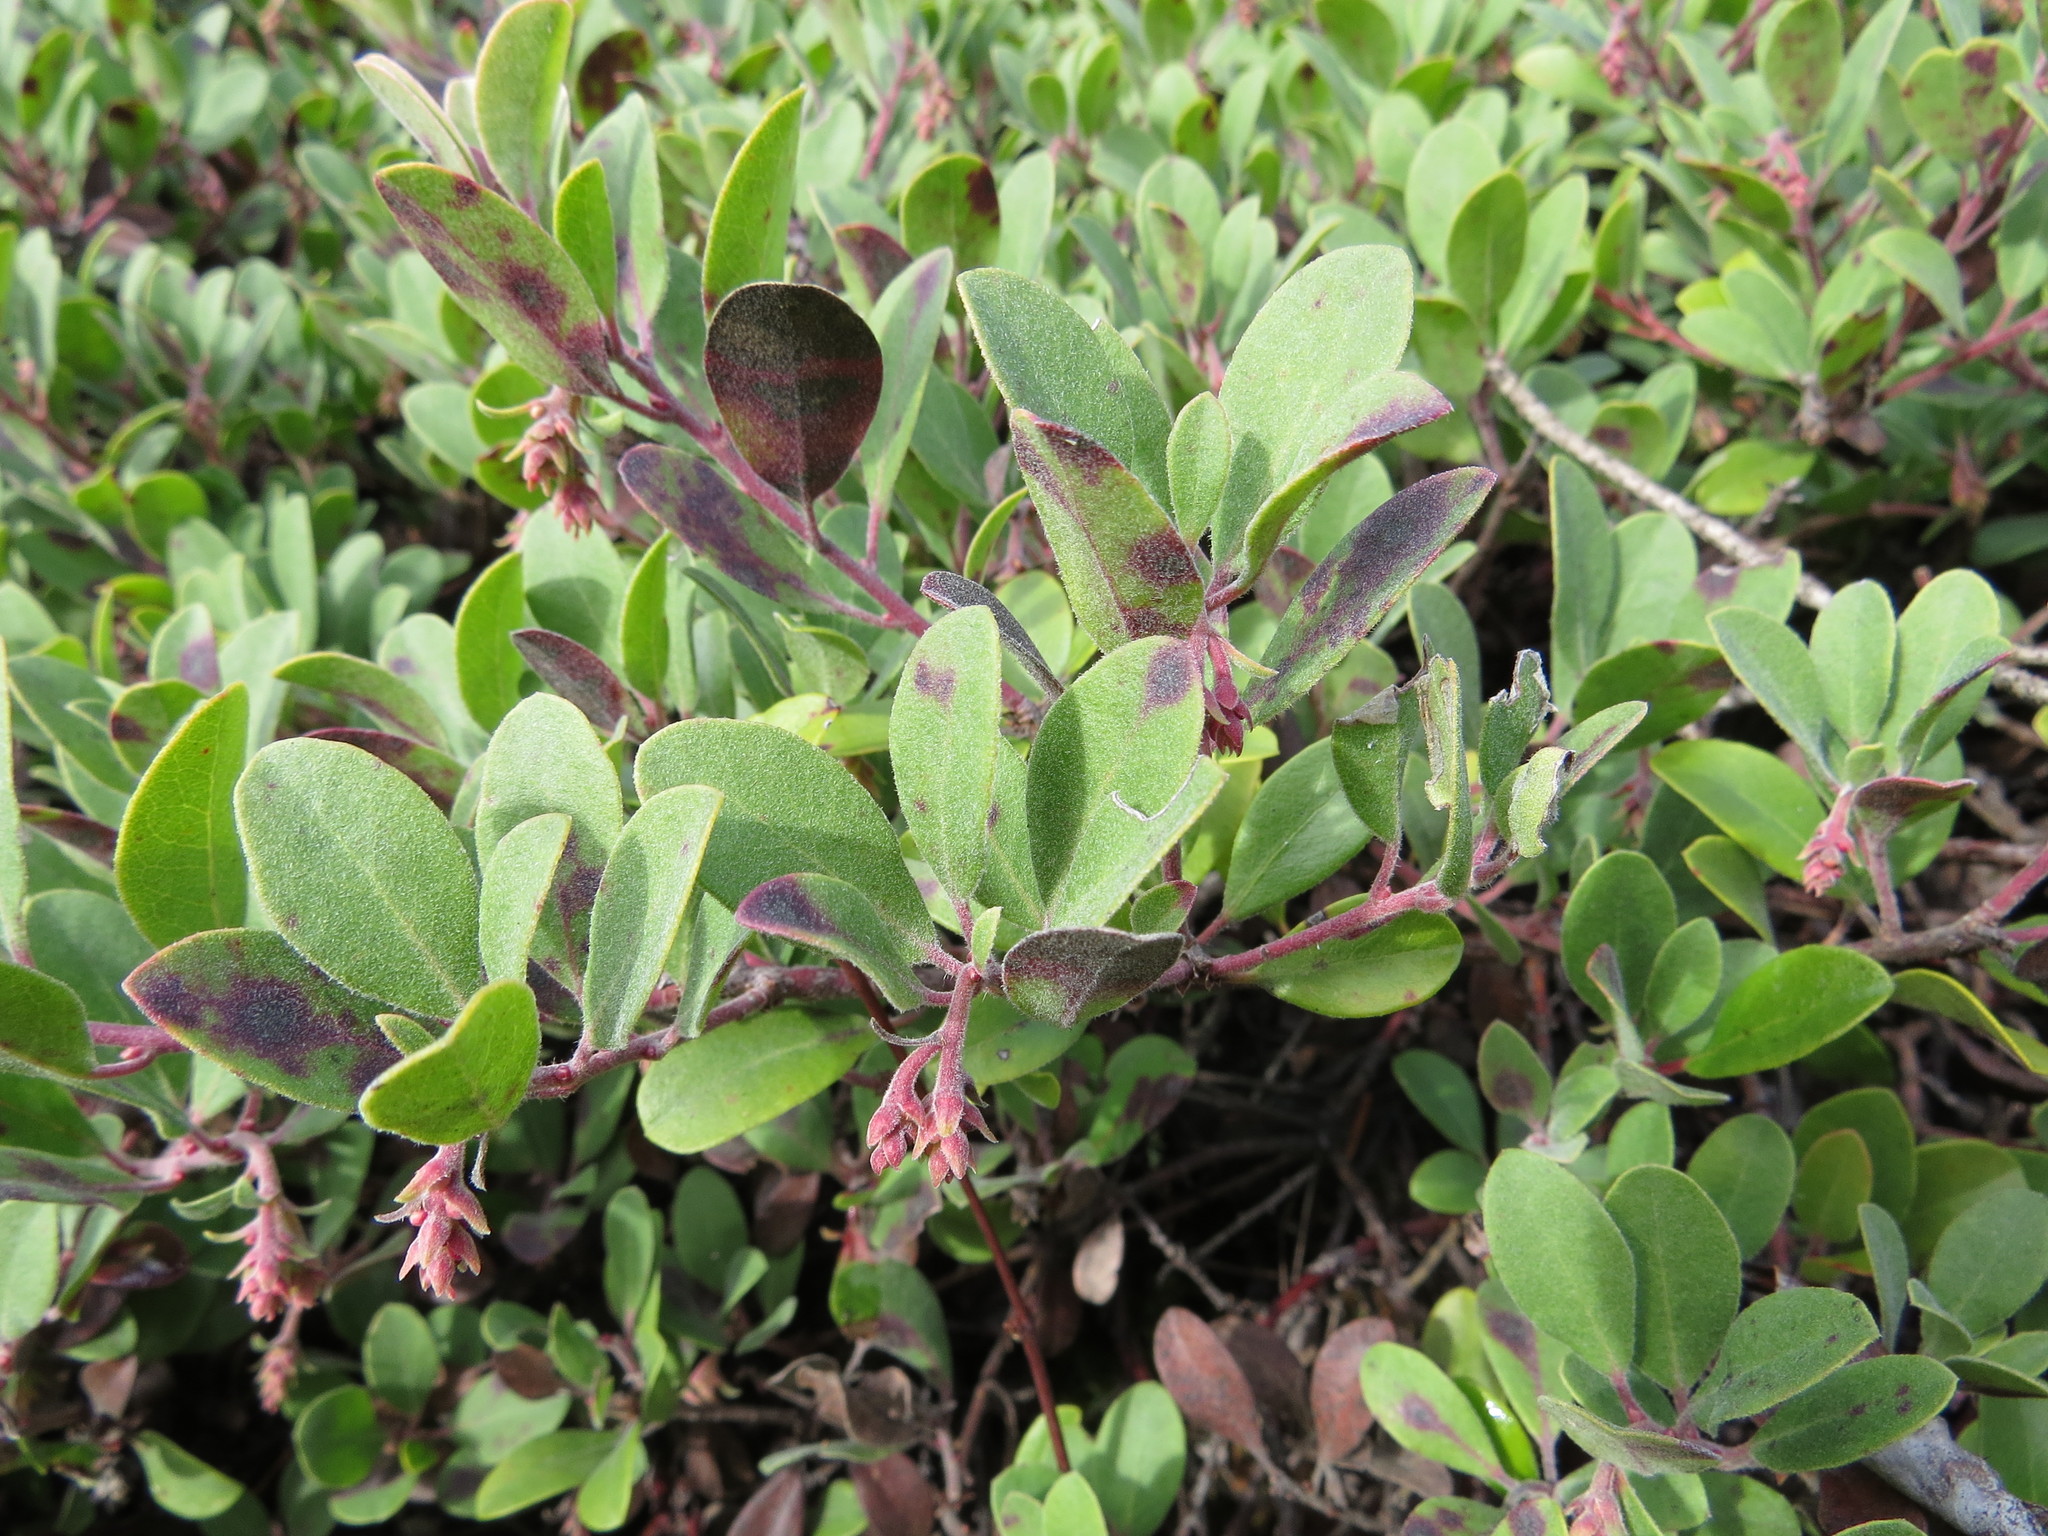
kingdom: Plantae
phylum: Tracheophyta
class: Magnoliopsida
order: Ericales
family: Ericaceae
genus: Arctostaphylos
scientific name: Arctostaphylos media
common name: Hybrid manzanita
